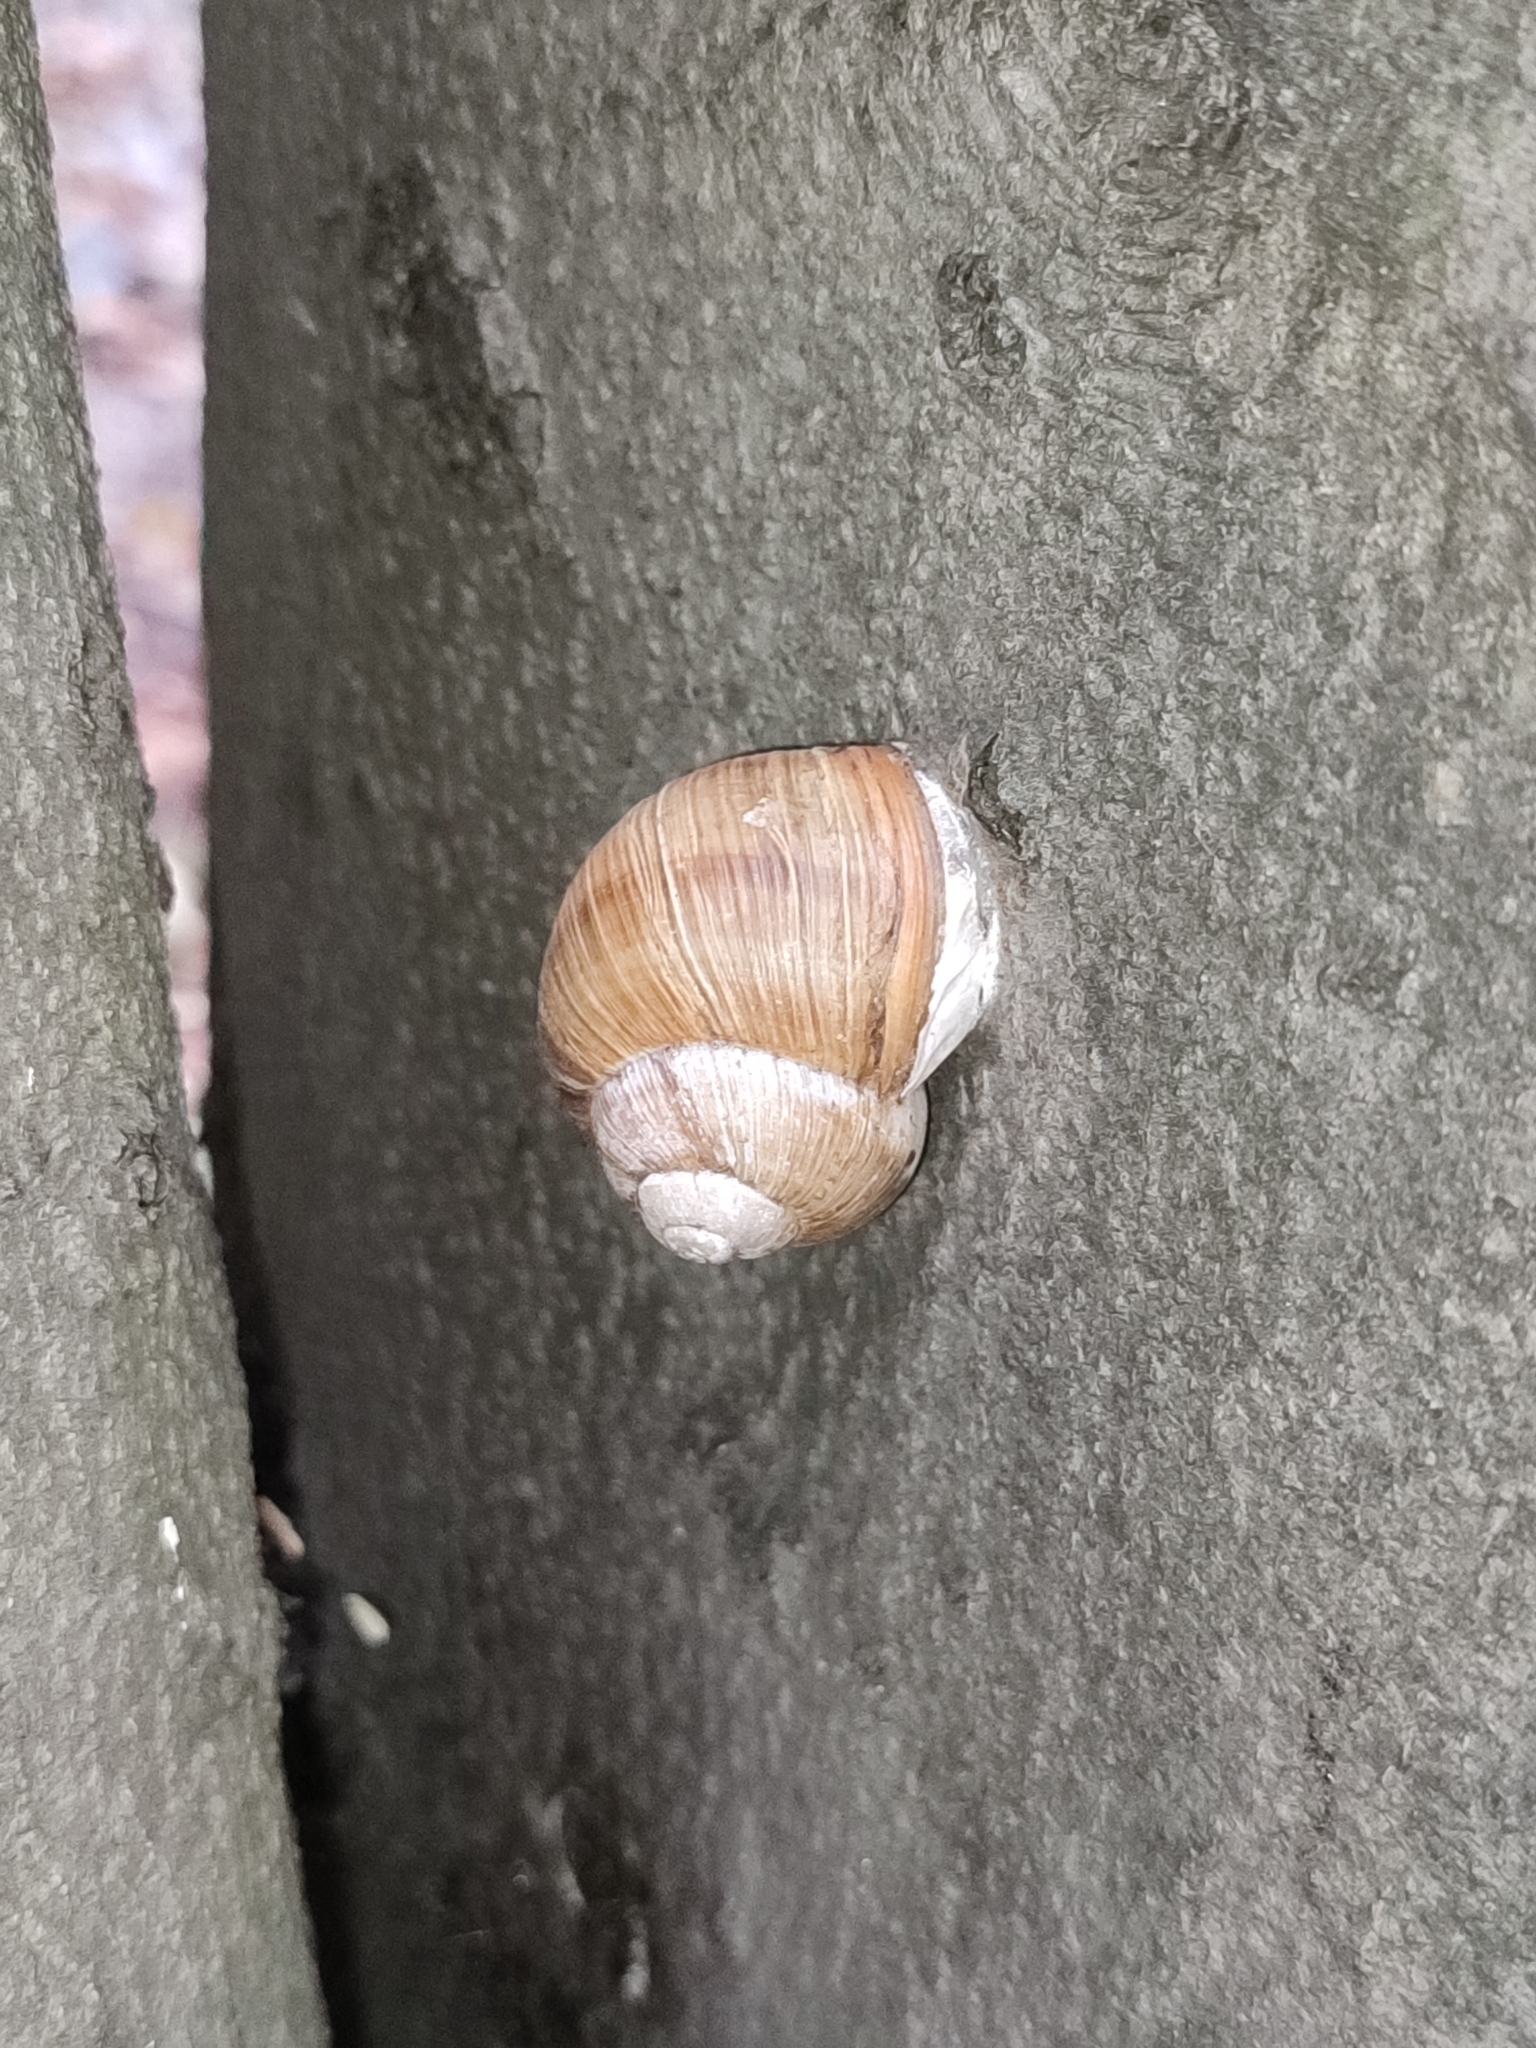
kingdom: Animalia
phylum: Mollusca
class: Gastropoda
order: Stylommatophora
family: Helicidae
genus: Helix
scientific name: Helix pomatia
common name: Roman snail
